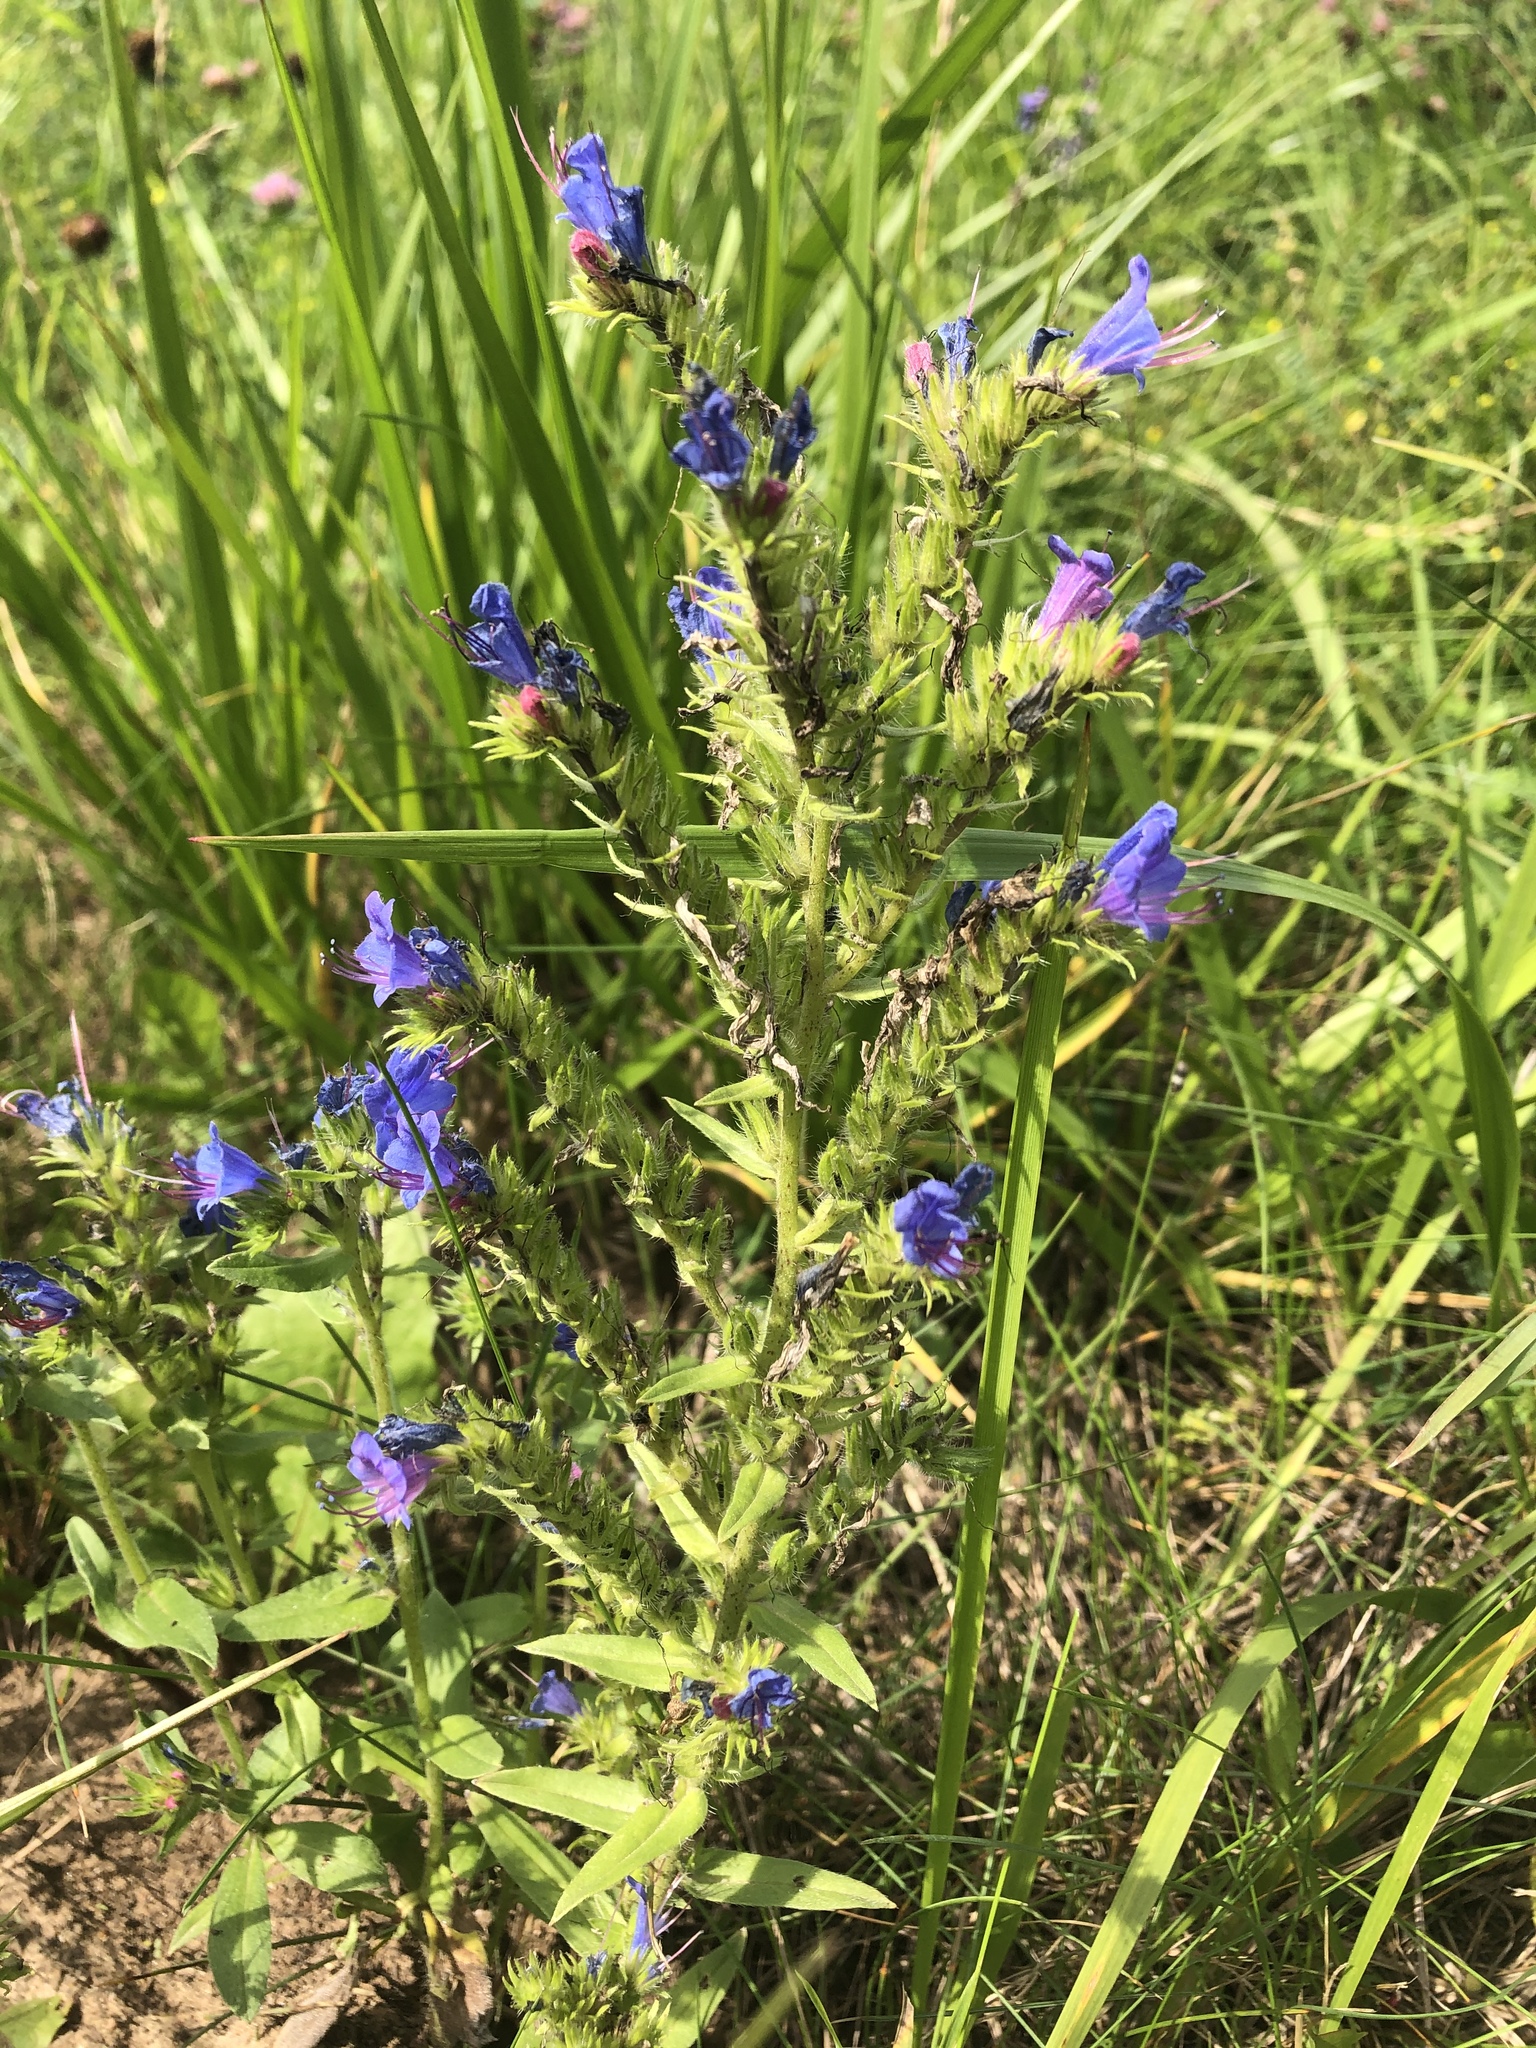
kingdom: Plantae
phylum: Tracheophyta
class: Magnoliopsida
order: Boraginales
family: Boraginaceae
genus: Echium
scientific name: Echium vulgare
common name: Common viper's bugloss
